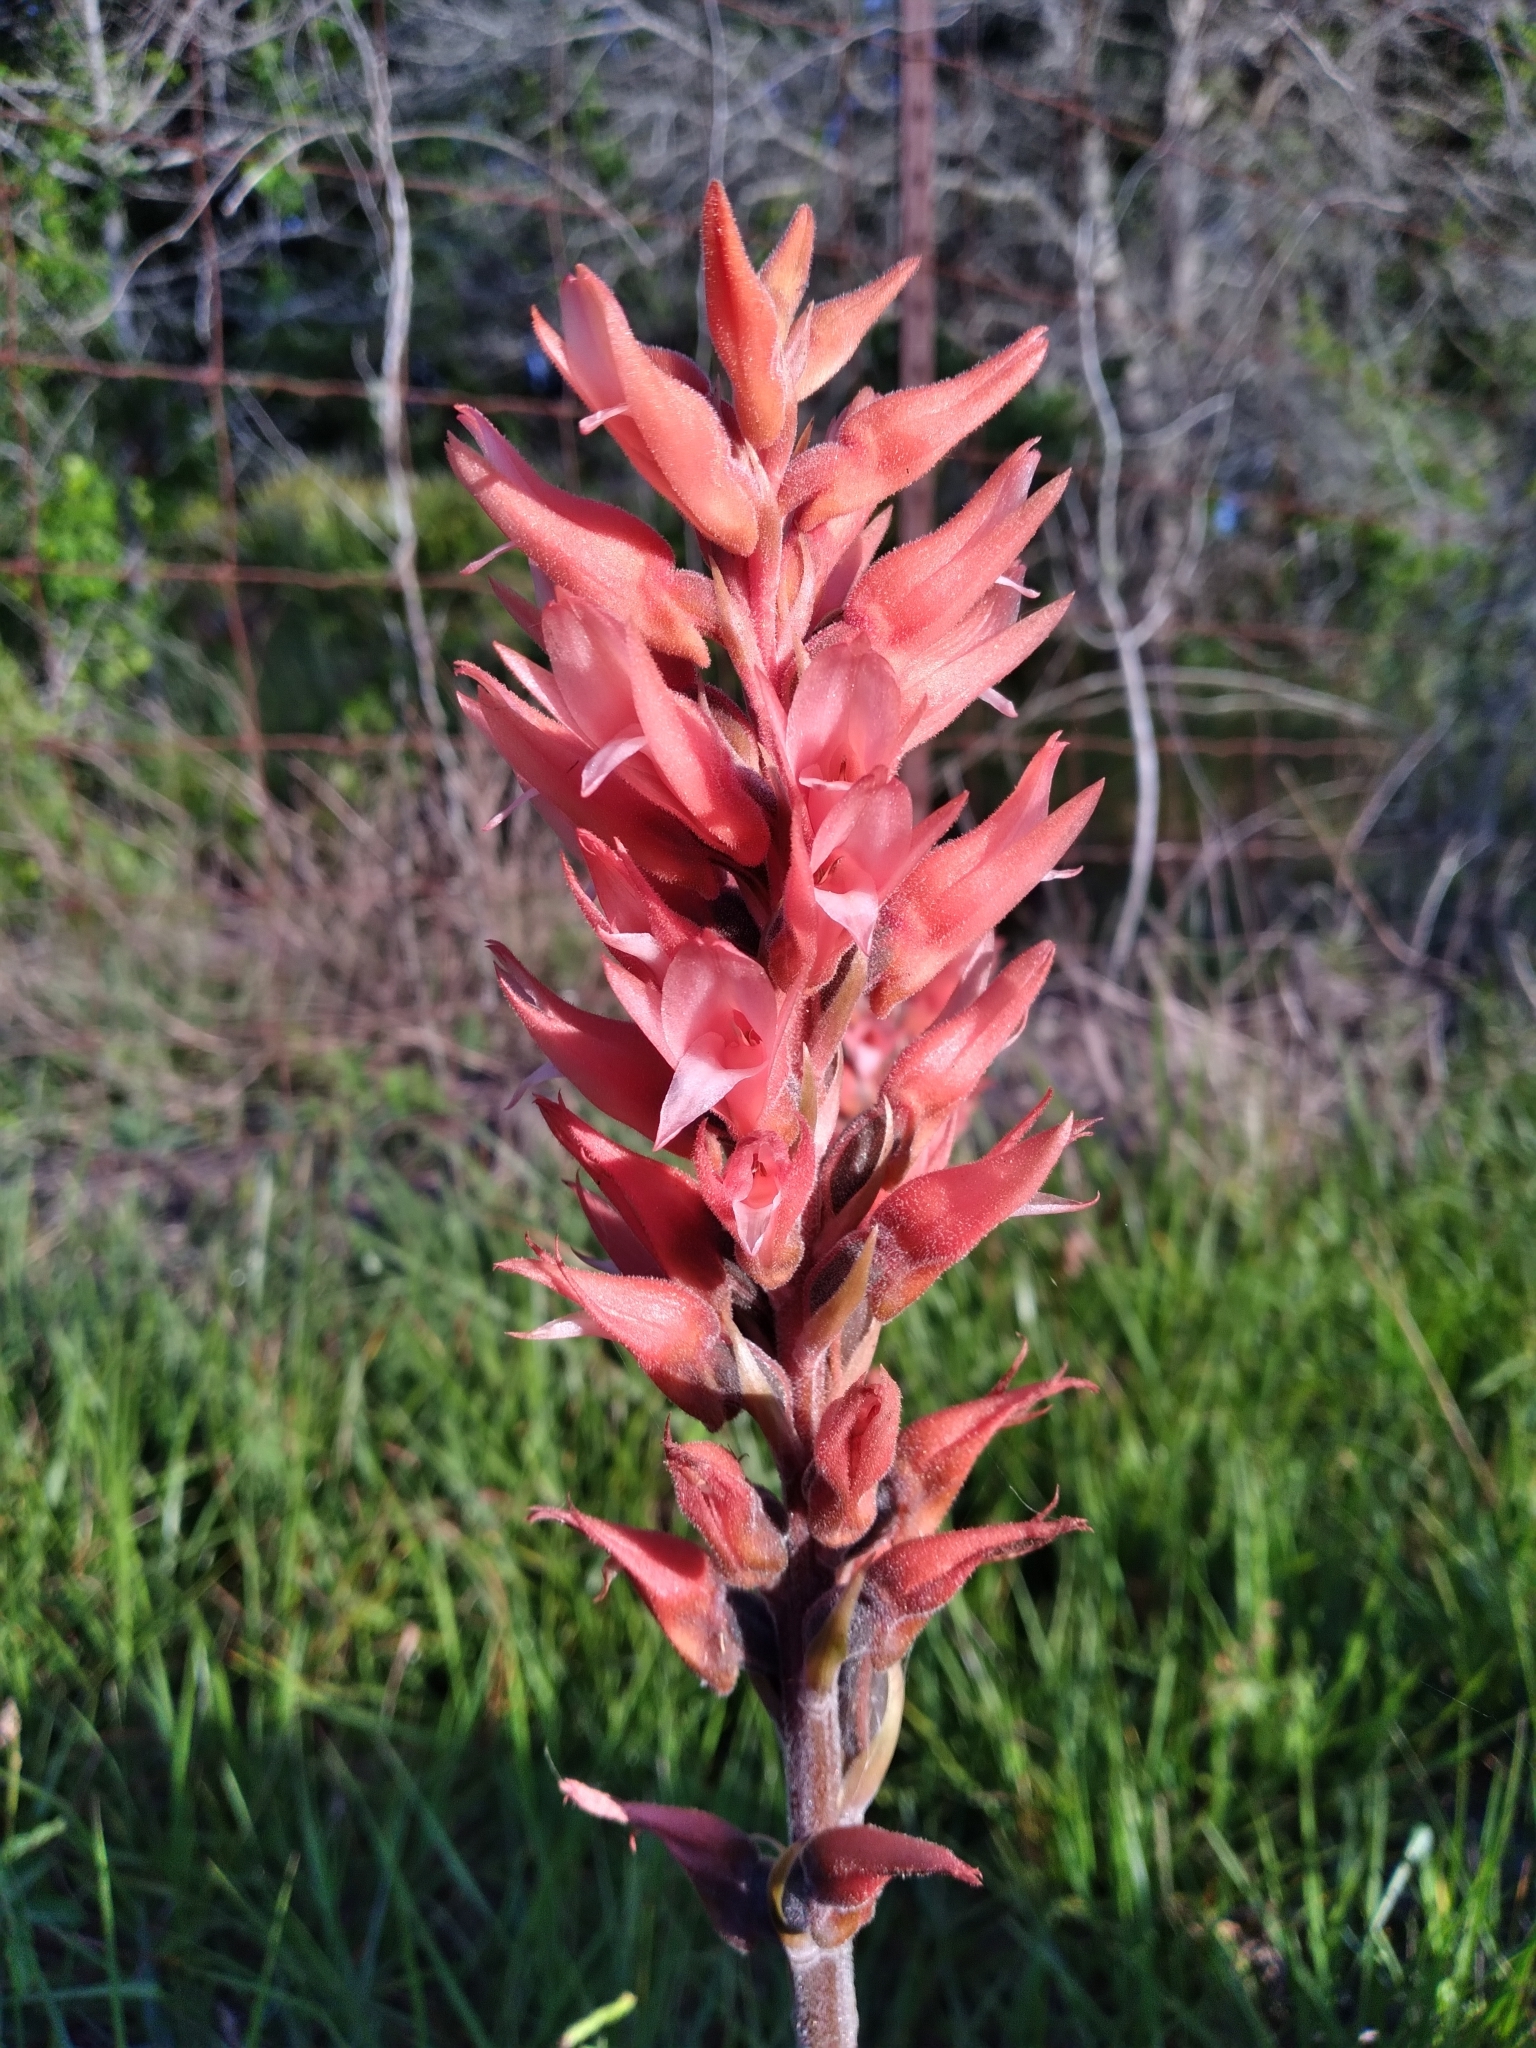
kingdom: Plantae
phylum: Tracheophyta
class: Liliopsida
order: Asparagales
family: Orchidaceae
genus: Sacoila
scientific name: Sacoila lanceolata
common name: Leafless beaked ladiestresses
